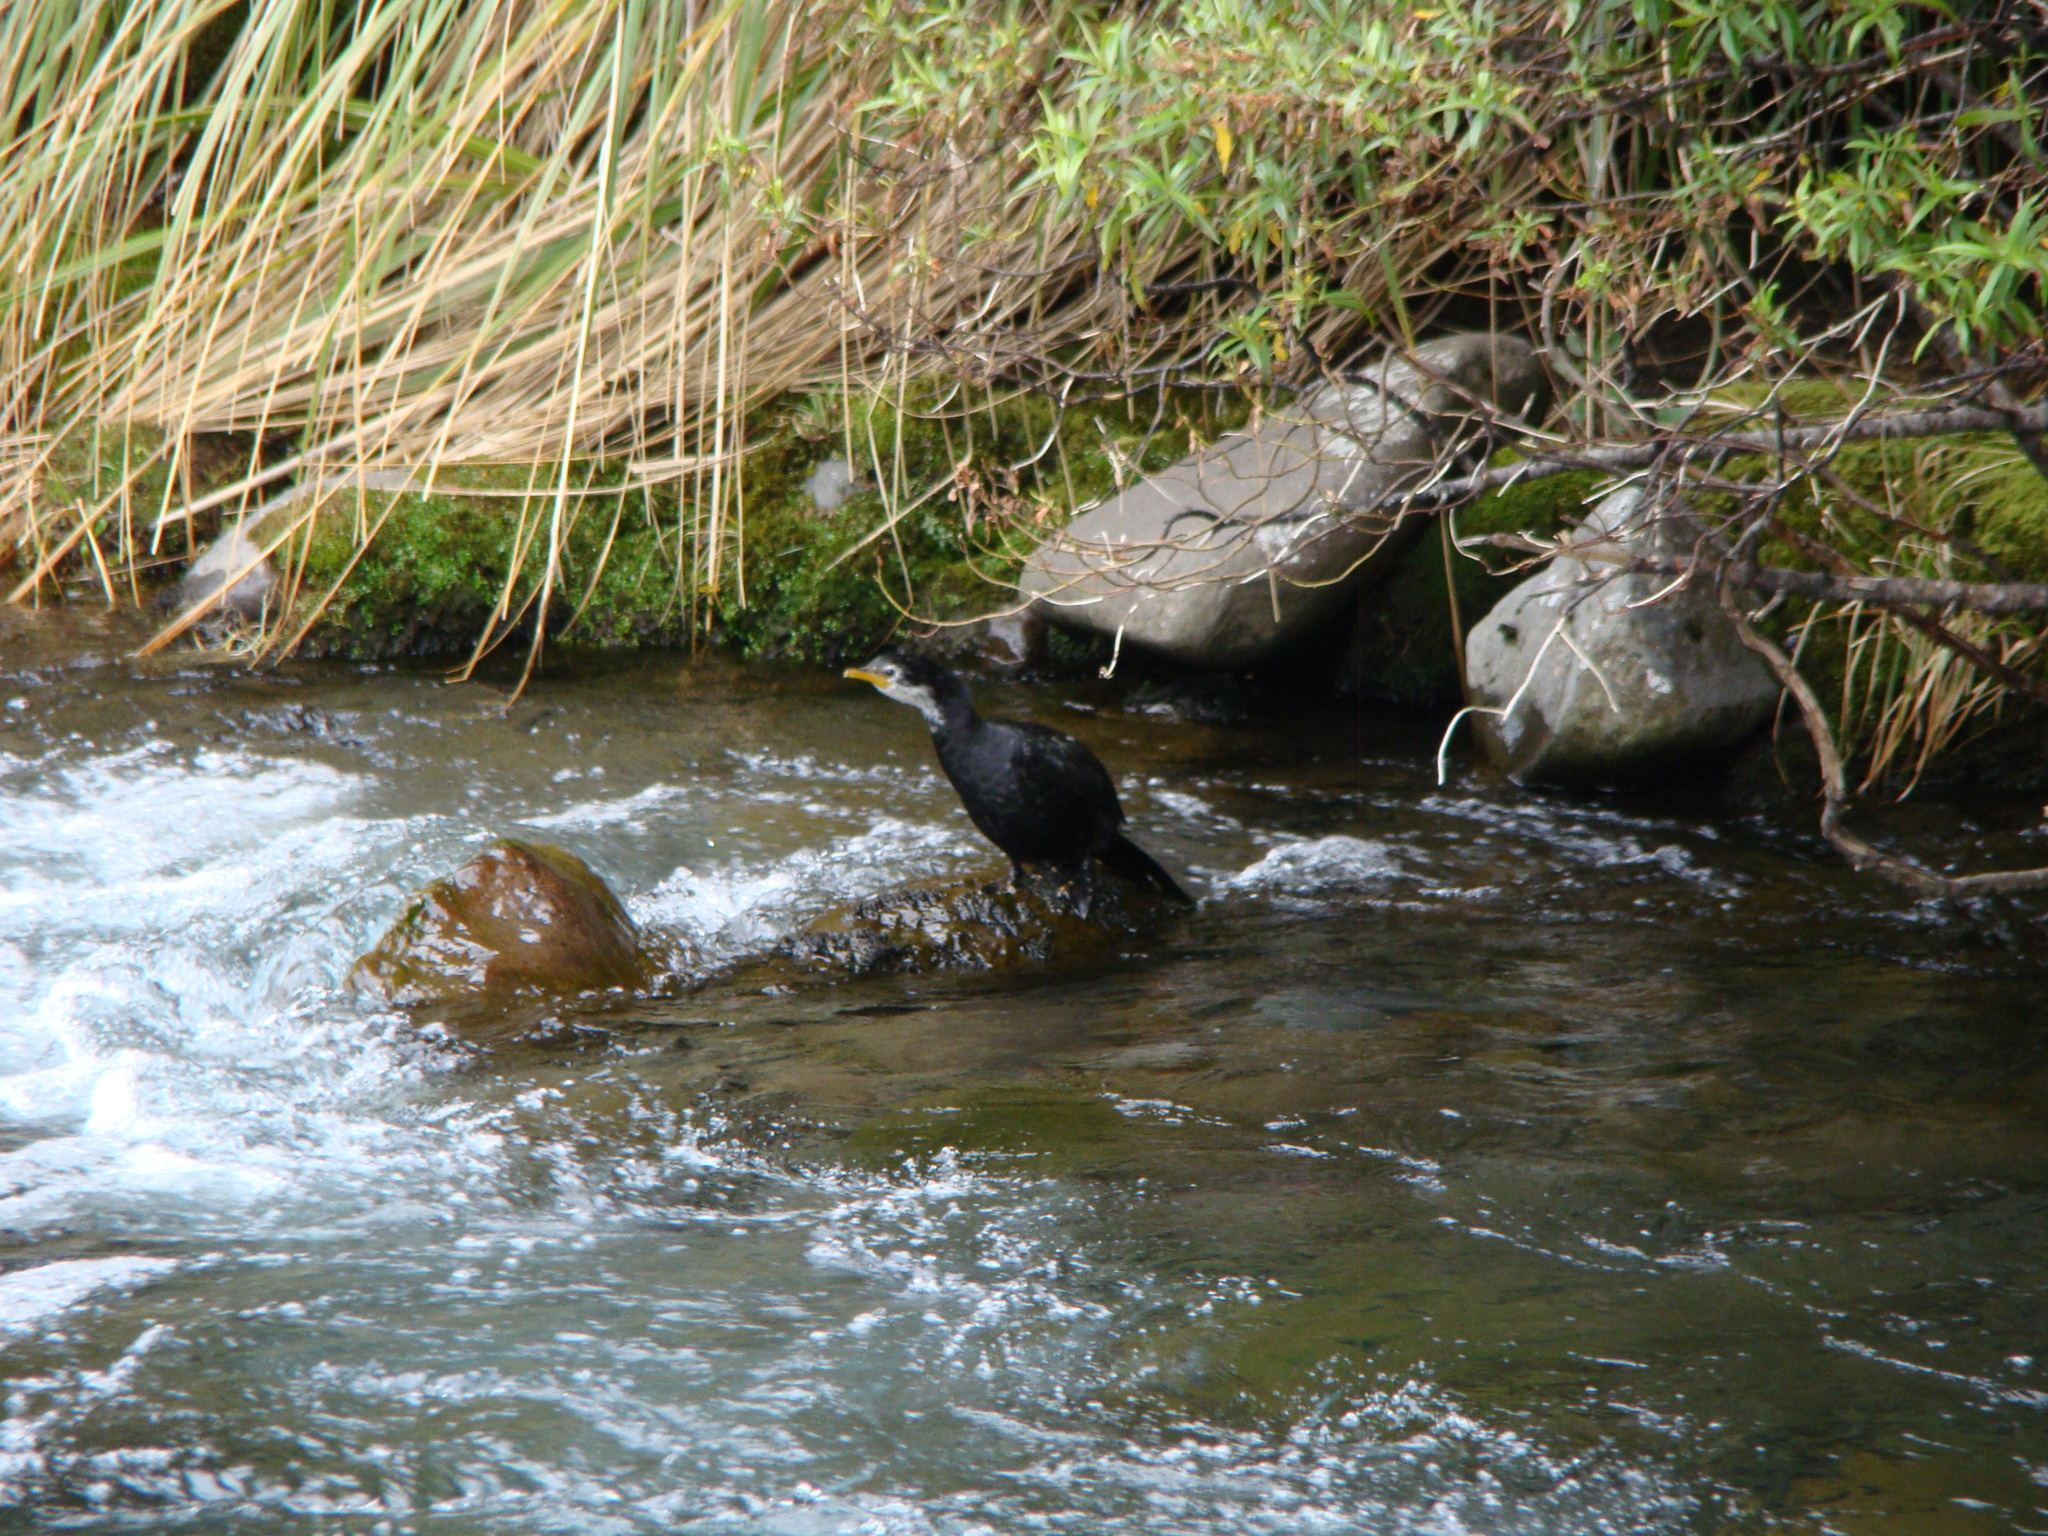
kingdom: Animalia
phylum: Chordata
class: Aves
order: Suliformes
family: Phalacrocoracidae
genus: Microcarbo
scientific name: Microcarbo melanoleucos
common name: Little pied cormorant
